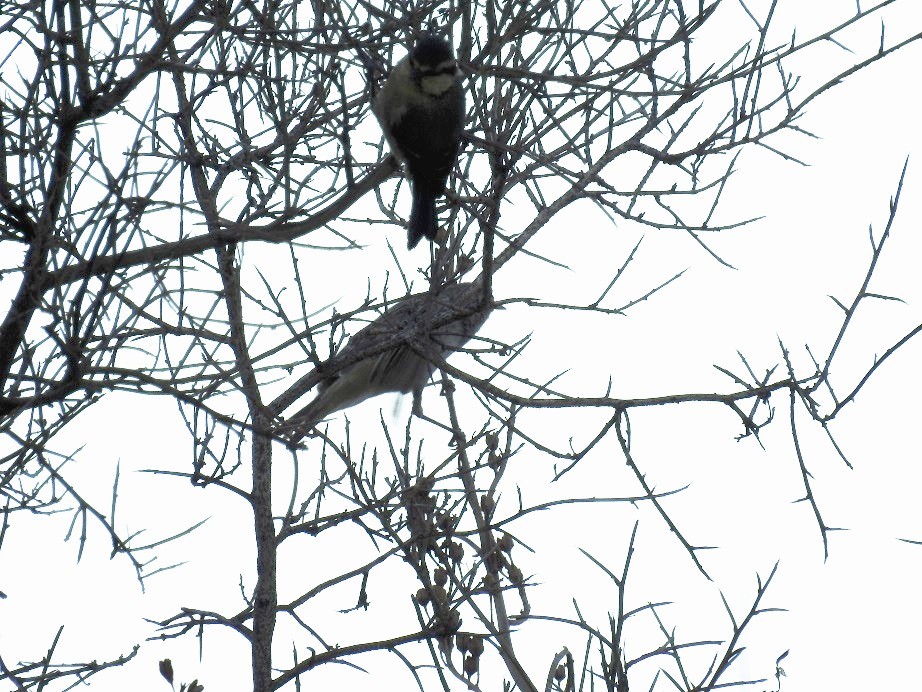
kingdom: Animalia
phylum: Chordata
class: Aves
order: Passeriformes
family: Paridae
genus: Cyanistes
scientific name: Cyanistes teneriffae
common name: African blue tit
